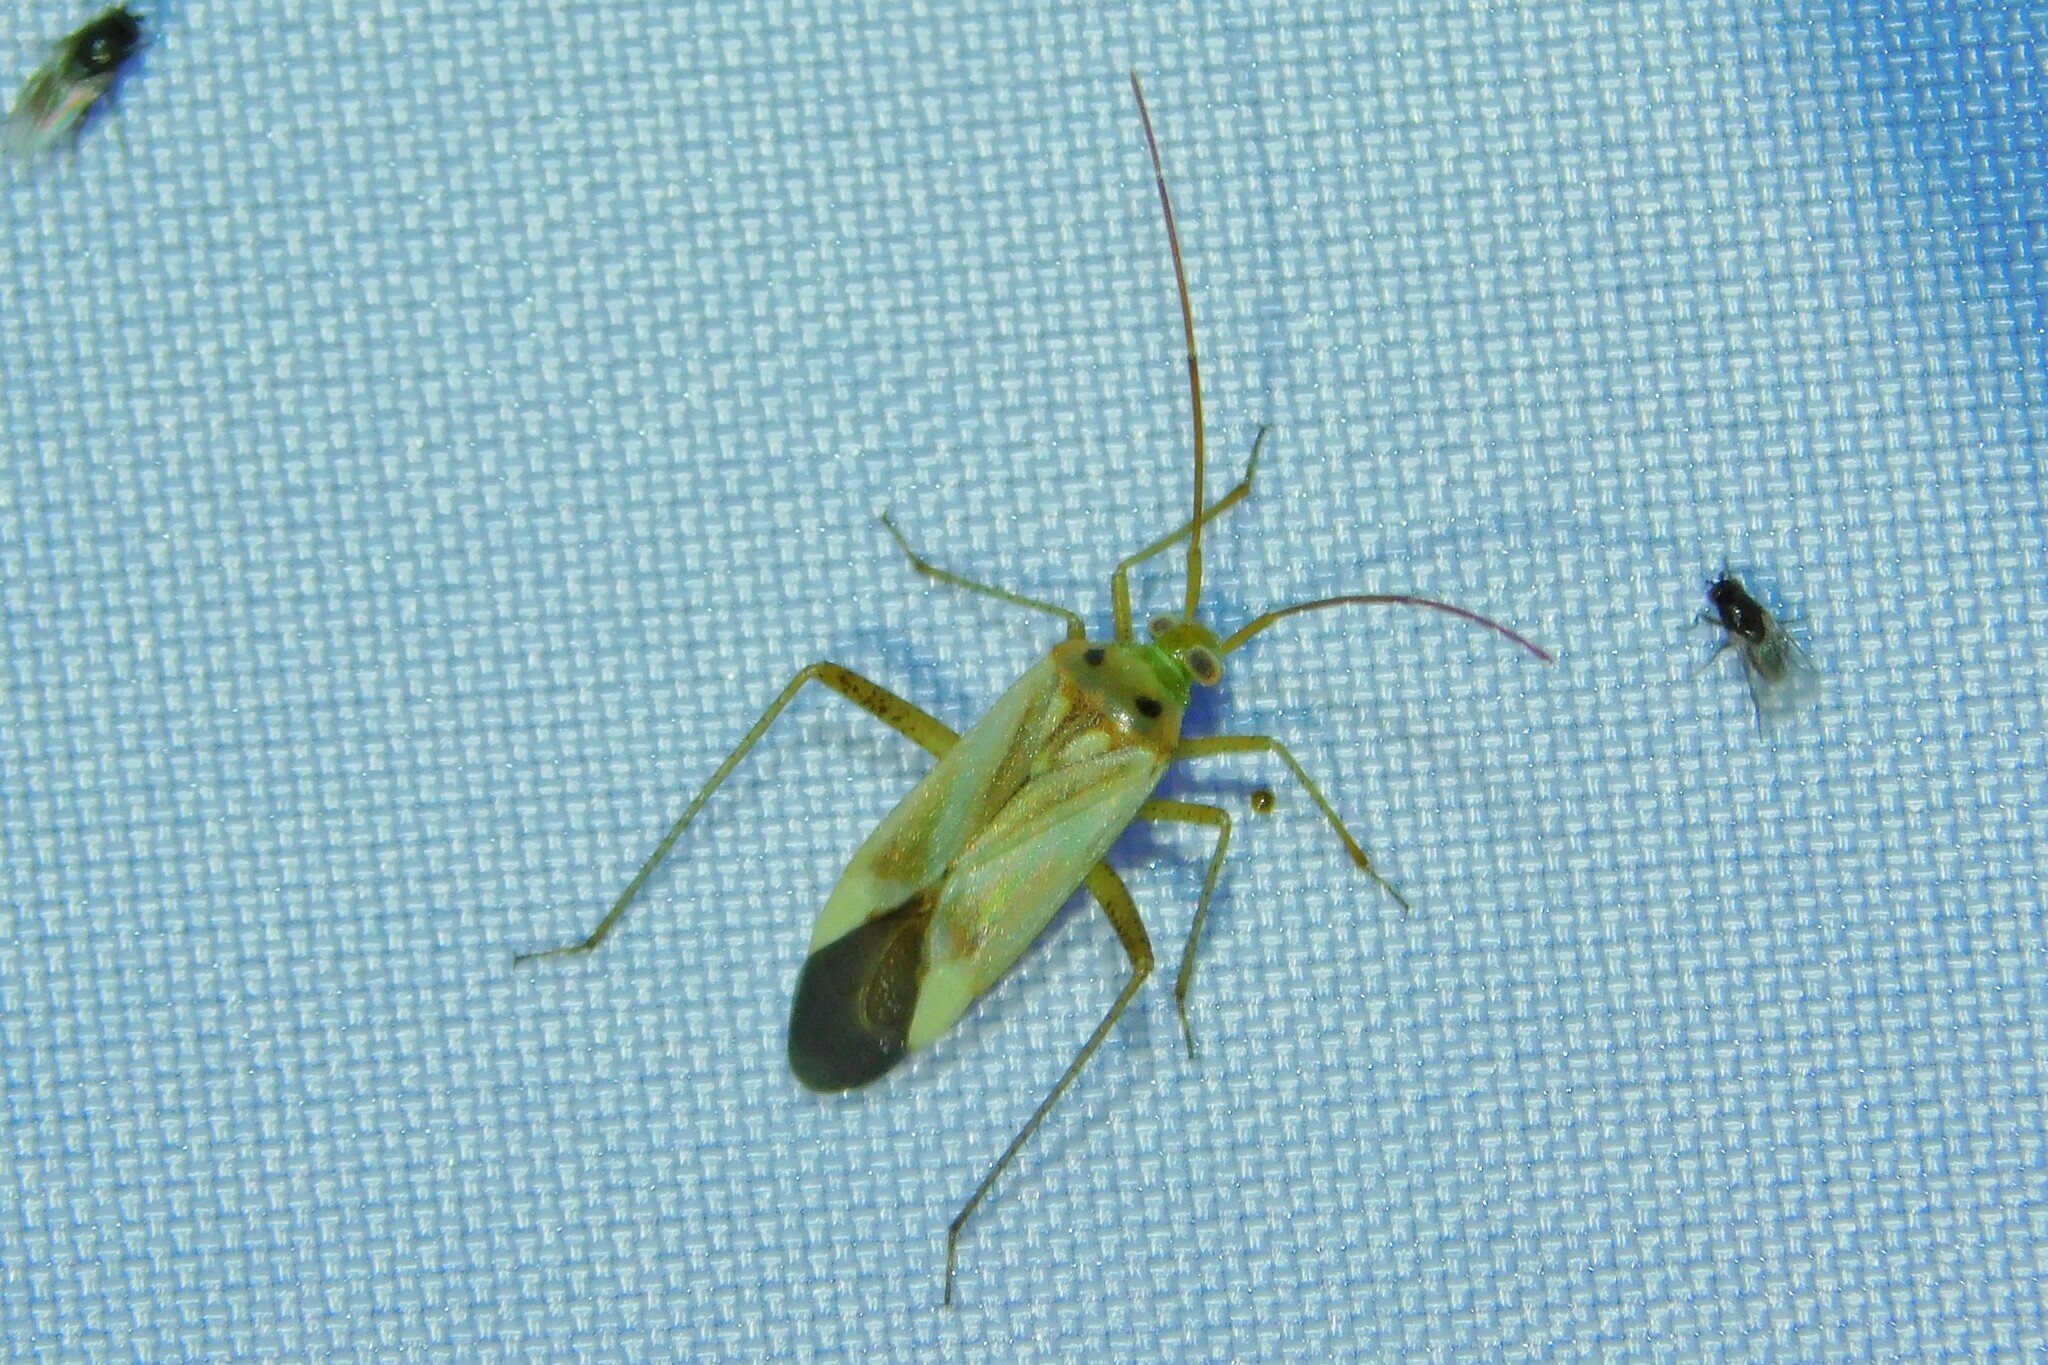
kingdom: Animalia
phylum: Arthropoda
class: Insecta
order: Hemiptera
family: Miridae
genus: Adelphocoris
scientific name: Adelphocoris lineolatus
